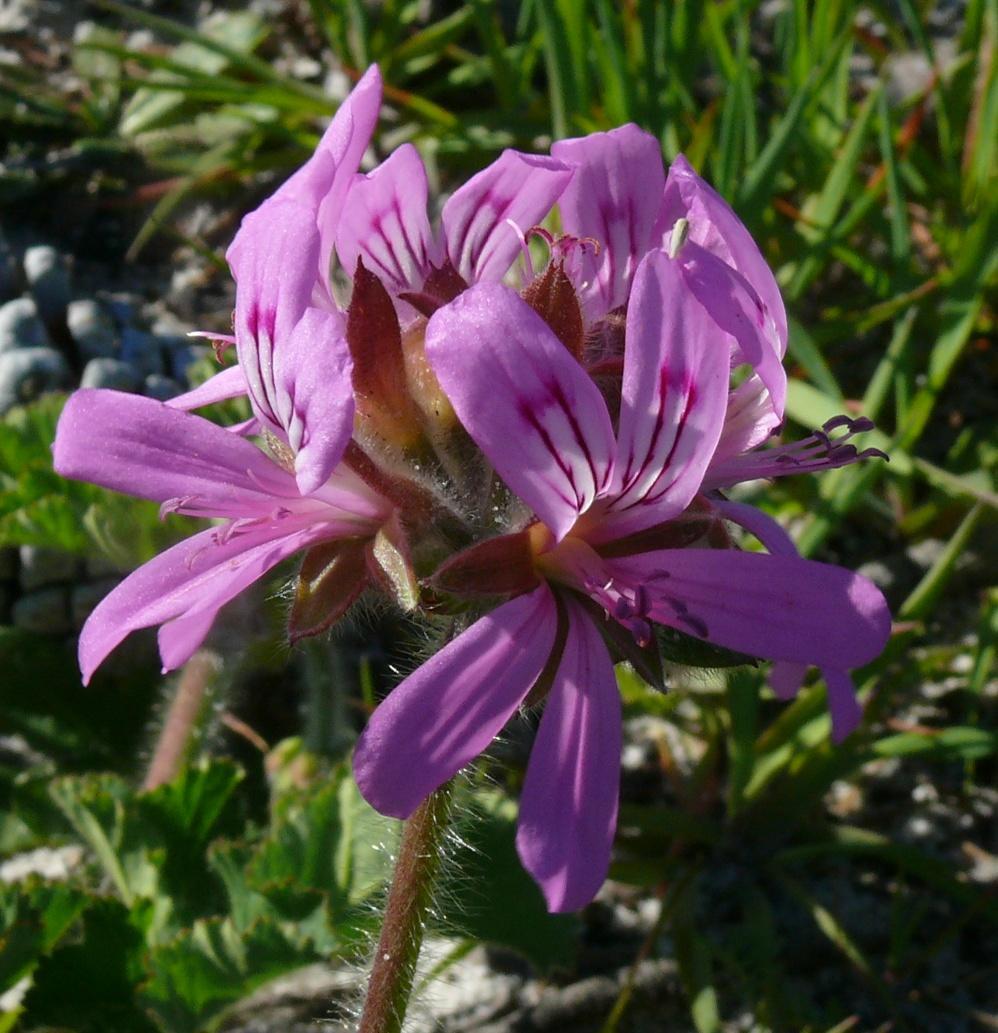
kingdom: Plantae
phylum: Tracheophyta
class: Magnoliopsida
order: Geraniales
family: Geraniaceae
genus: Pelargonium
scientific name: Pelargonium capitatum
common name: Rose scented geranium
